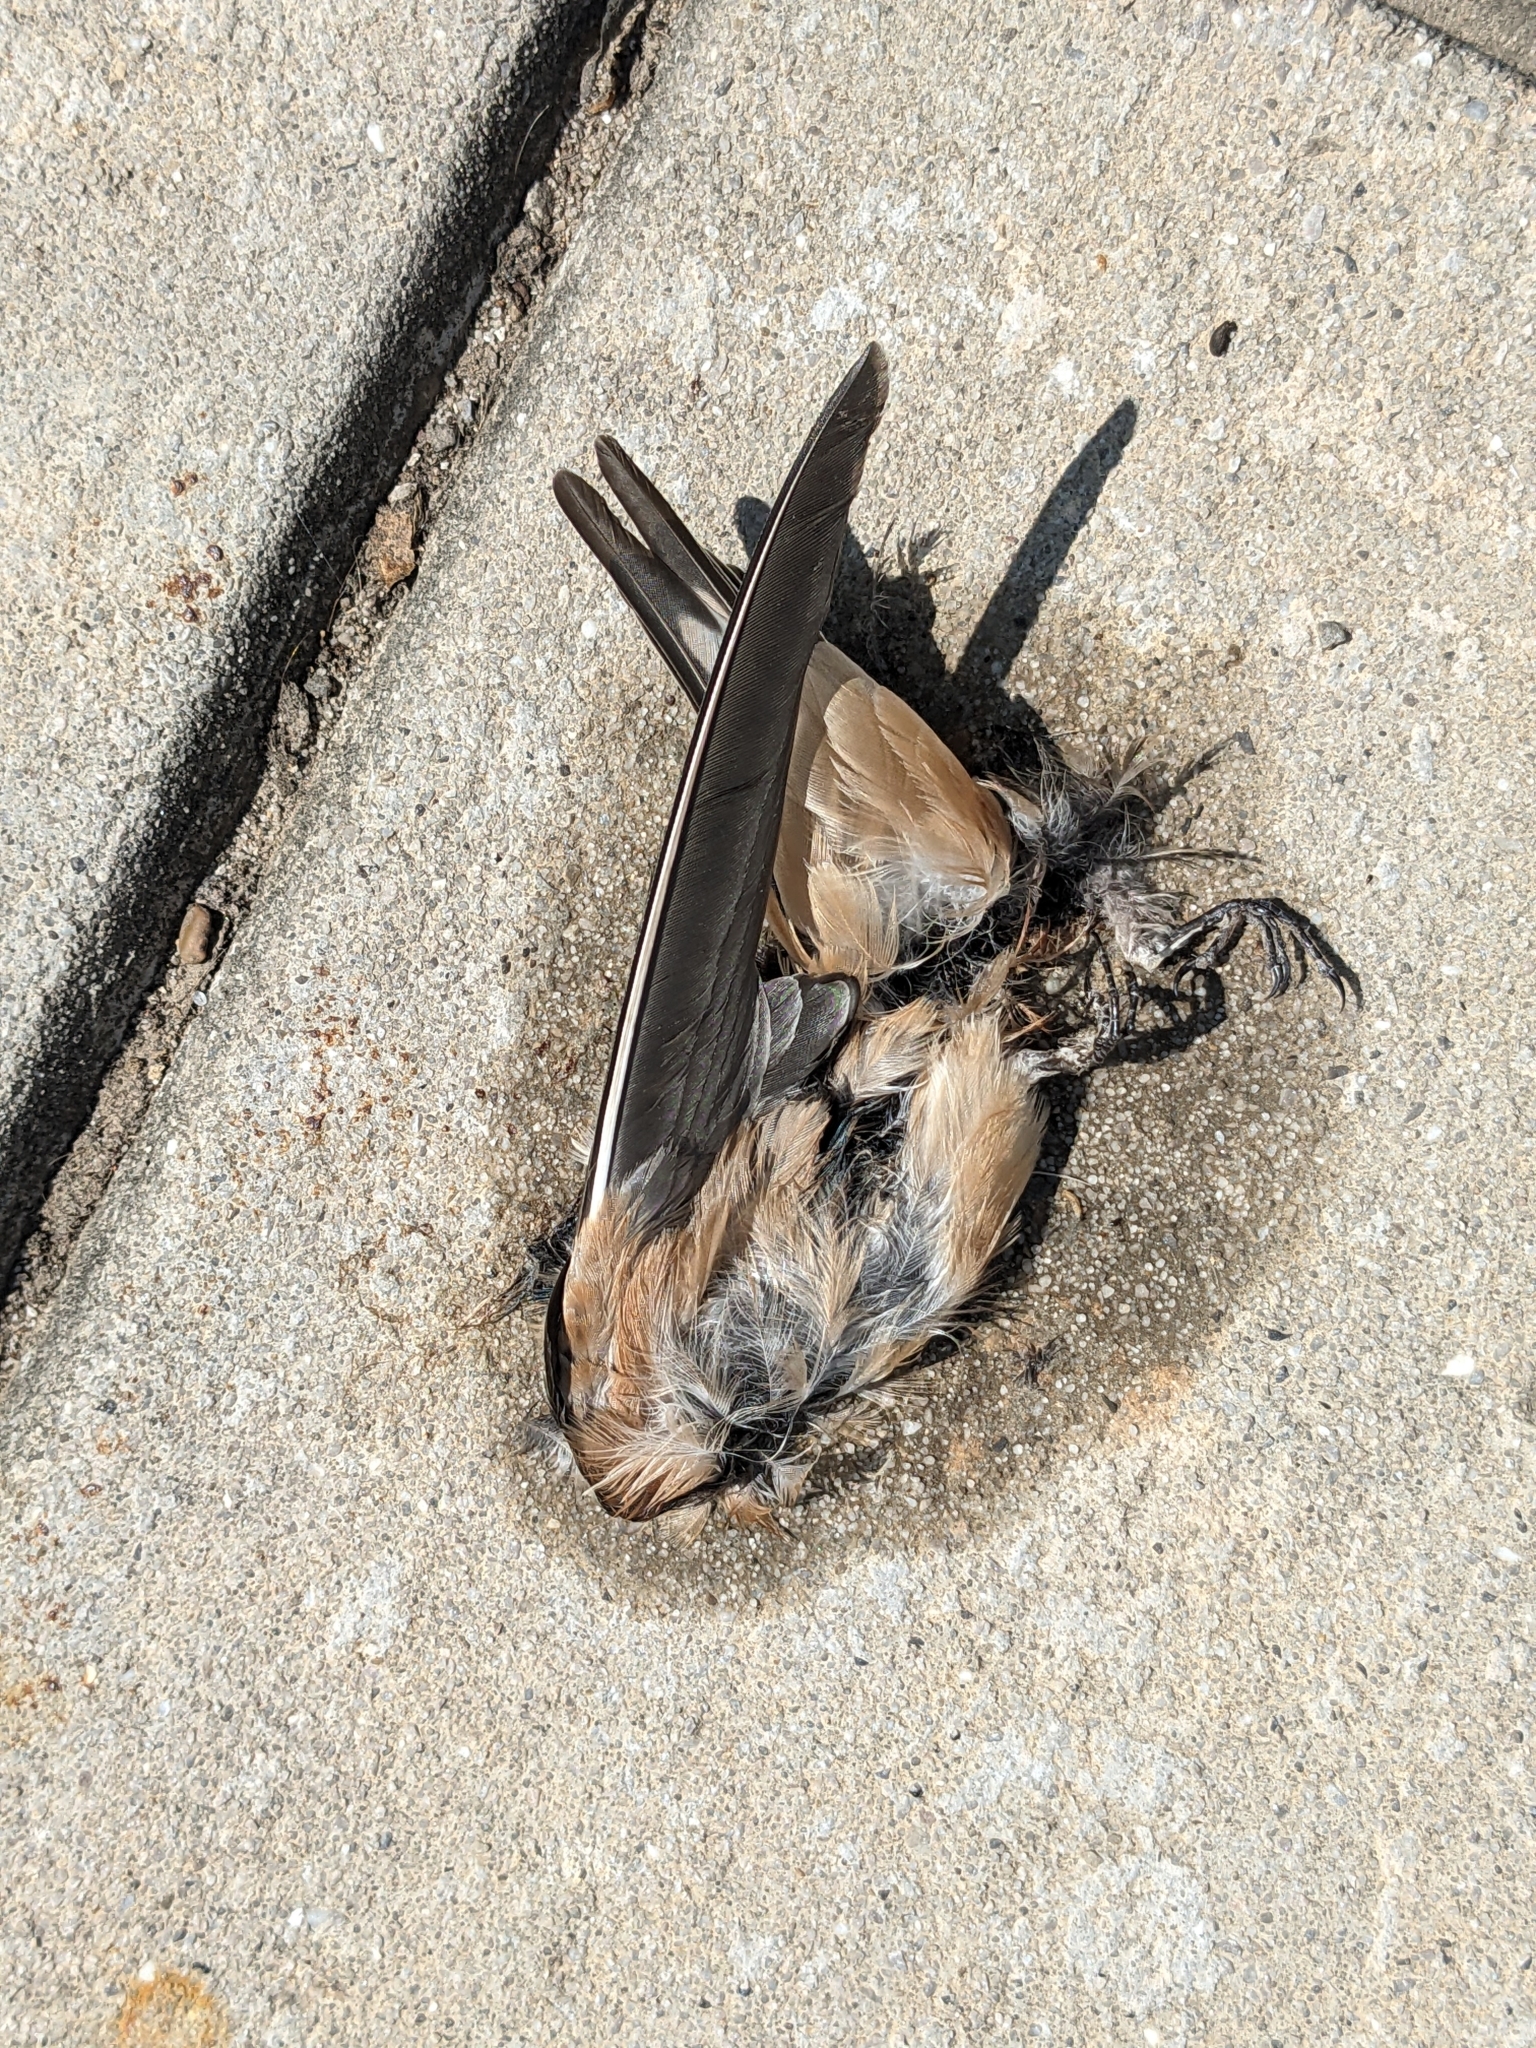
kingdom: Animalia
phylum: Chordata
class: Aves
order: Passeriformes
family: Hirundinidae
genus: Hirundo
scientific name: Hirundo rustica
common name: Barn swallow
